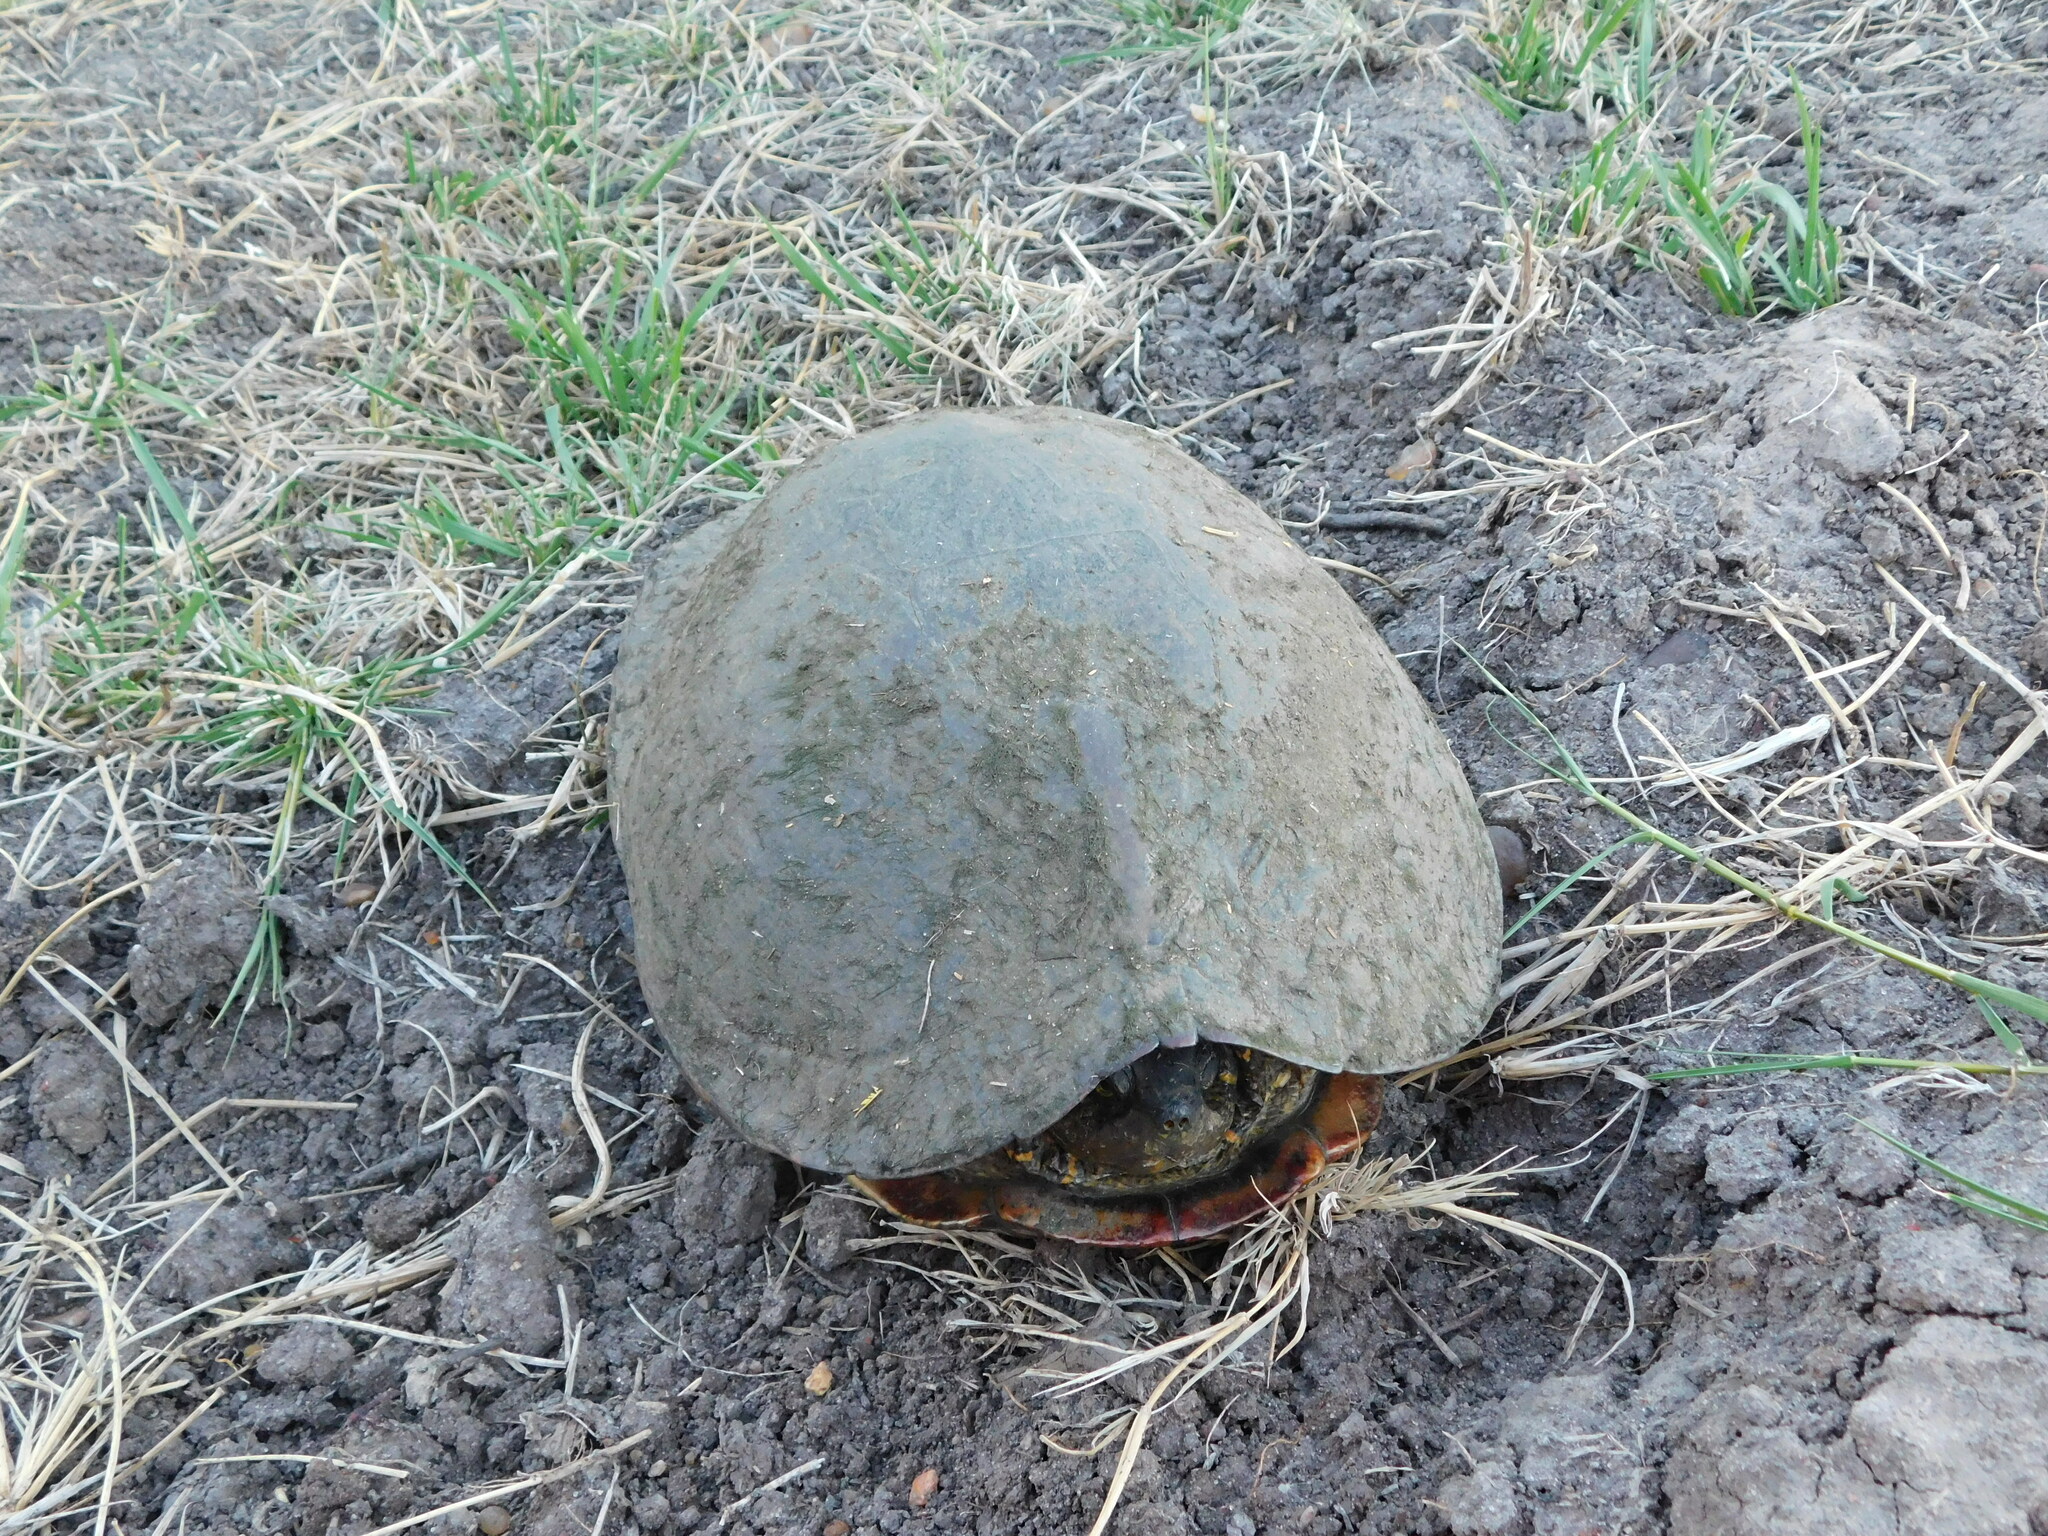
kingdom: Animalia
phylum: Chordata
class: Testudines
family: Emydidae
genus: Trachemys
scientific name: Trachemys dorbigni
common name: Black-bellied slider
